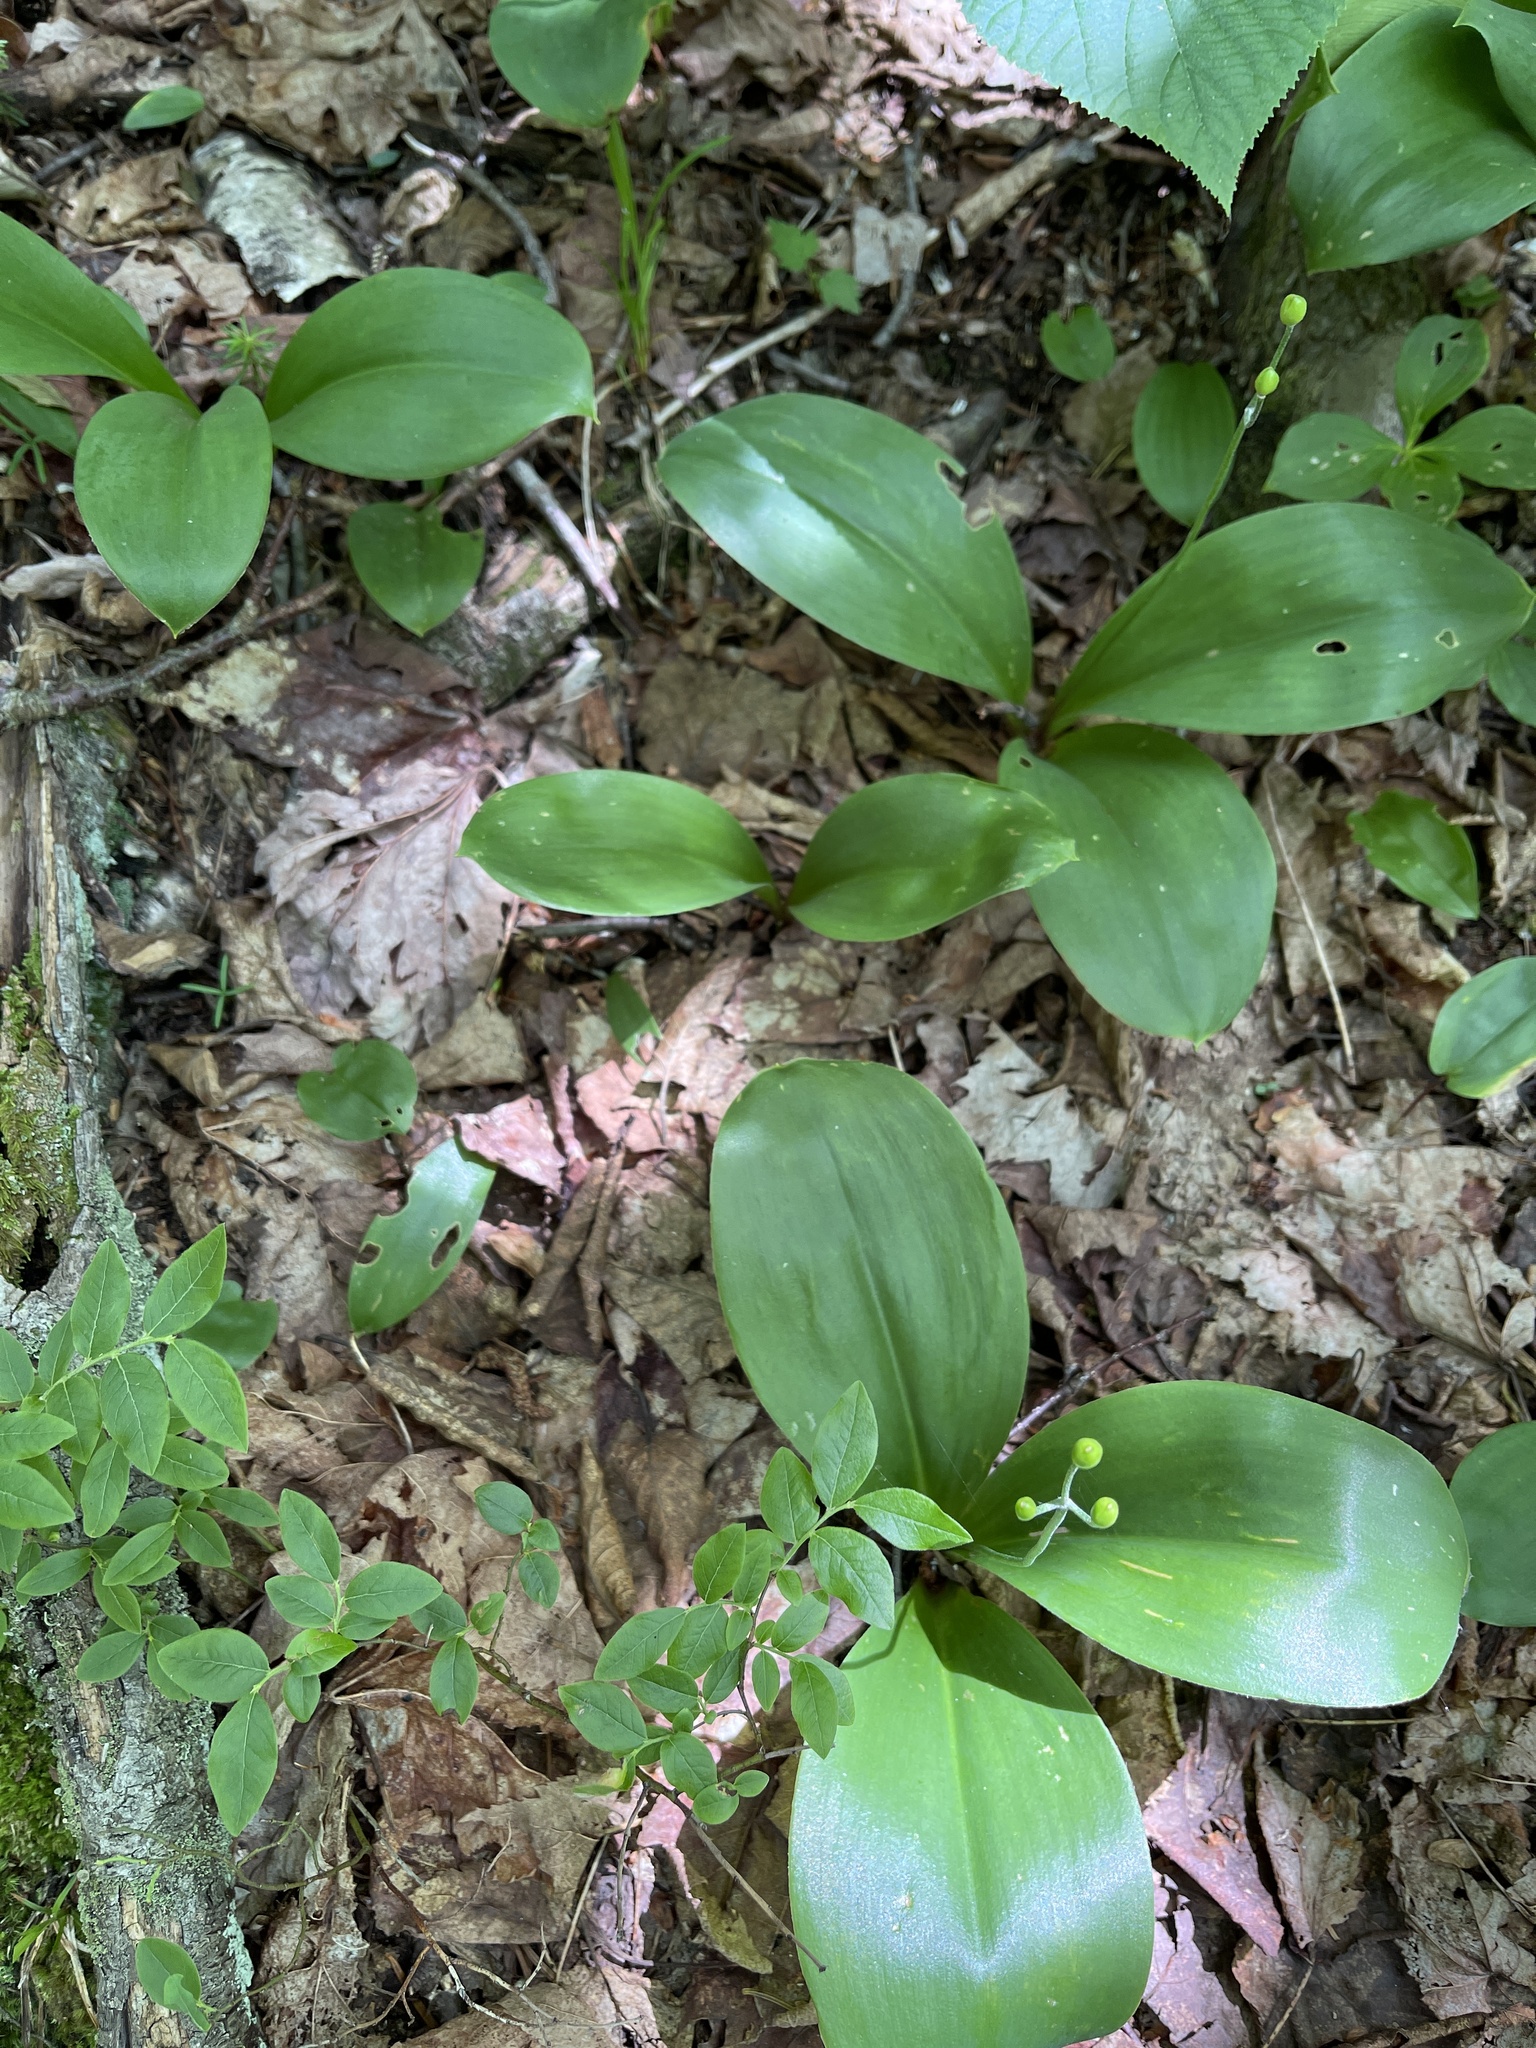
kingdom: Plantae
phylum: Tracheophyta
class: Liliopsida
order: Liliales
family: Liliaceae
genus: Clintonia
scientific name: Clintonia borealis
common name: Yellow clintonia
